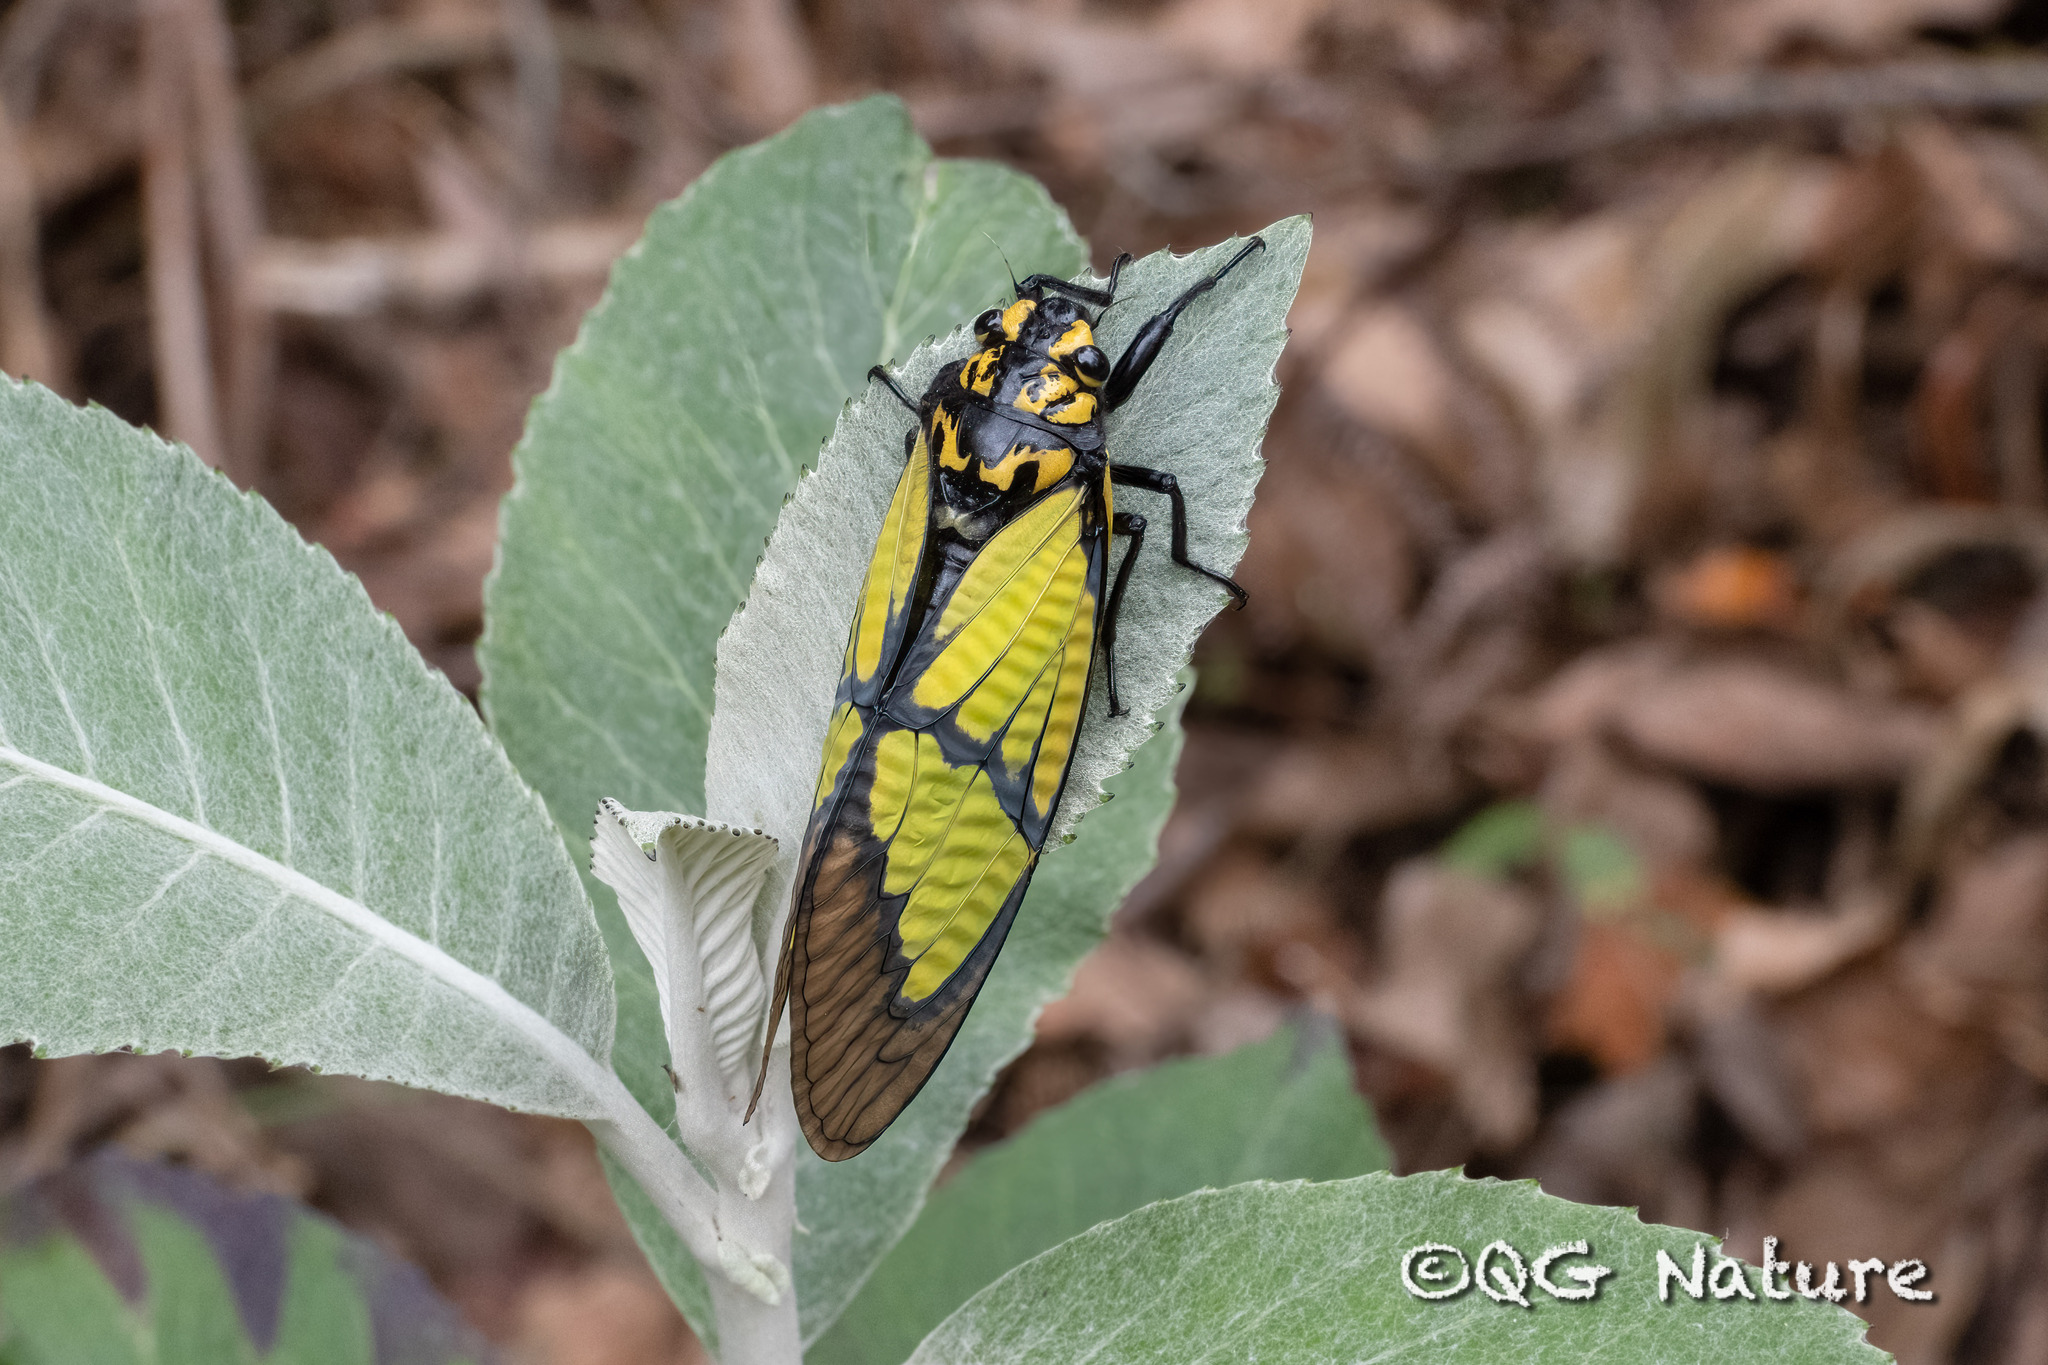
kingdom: Animalia
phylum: Arthropoda
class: Insecta
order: Hemiptera
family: Cicadidae
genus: Sulphogaeana
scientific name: Sulphogaeana sulphurea
